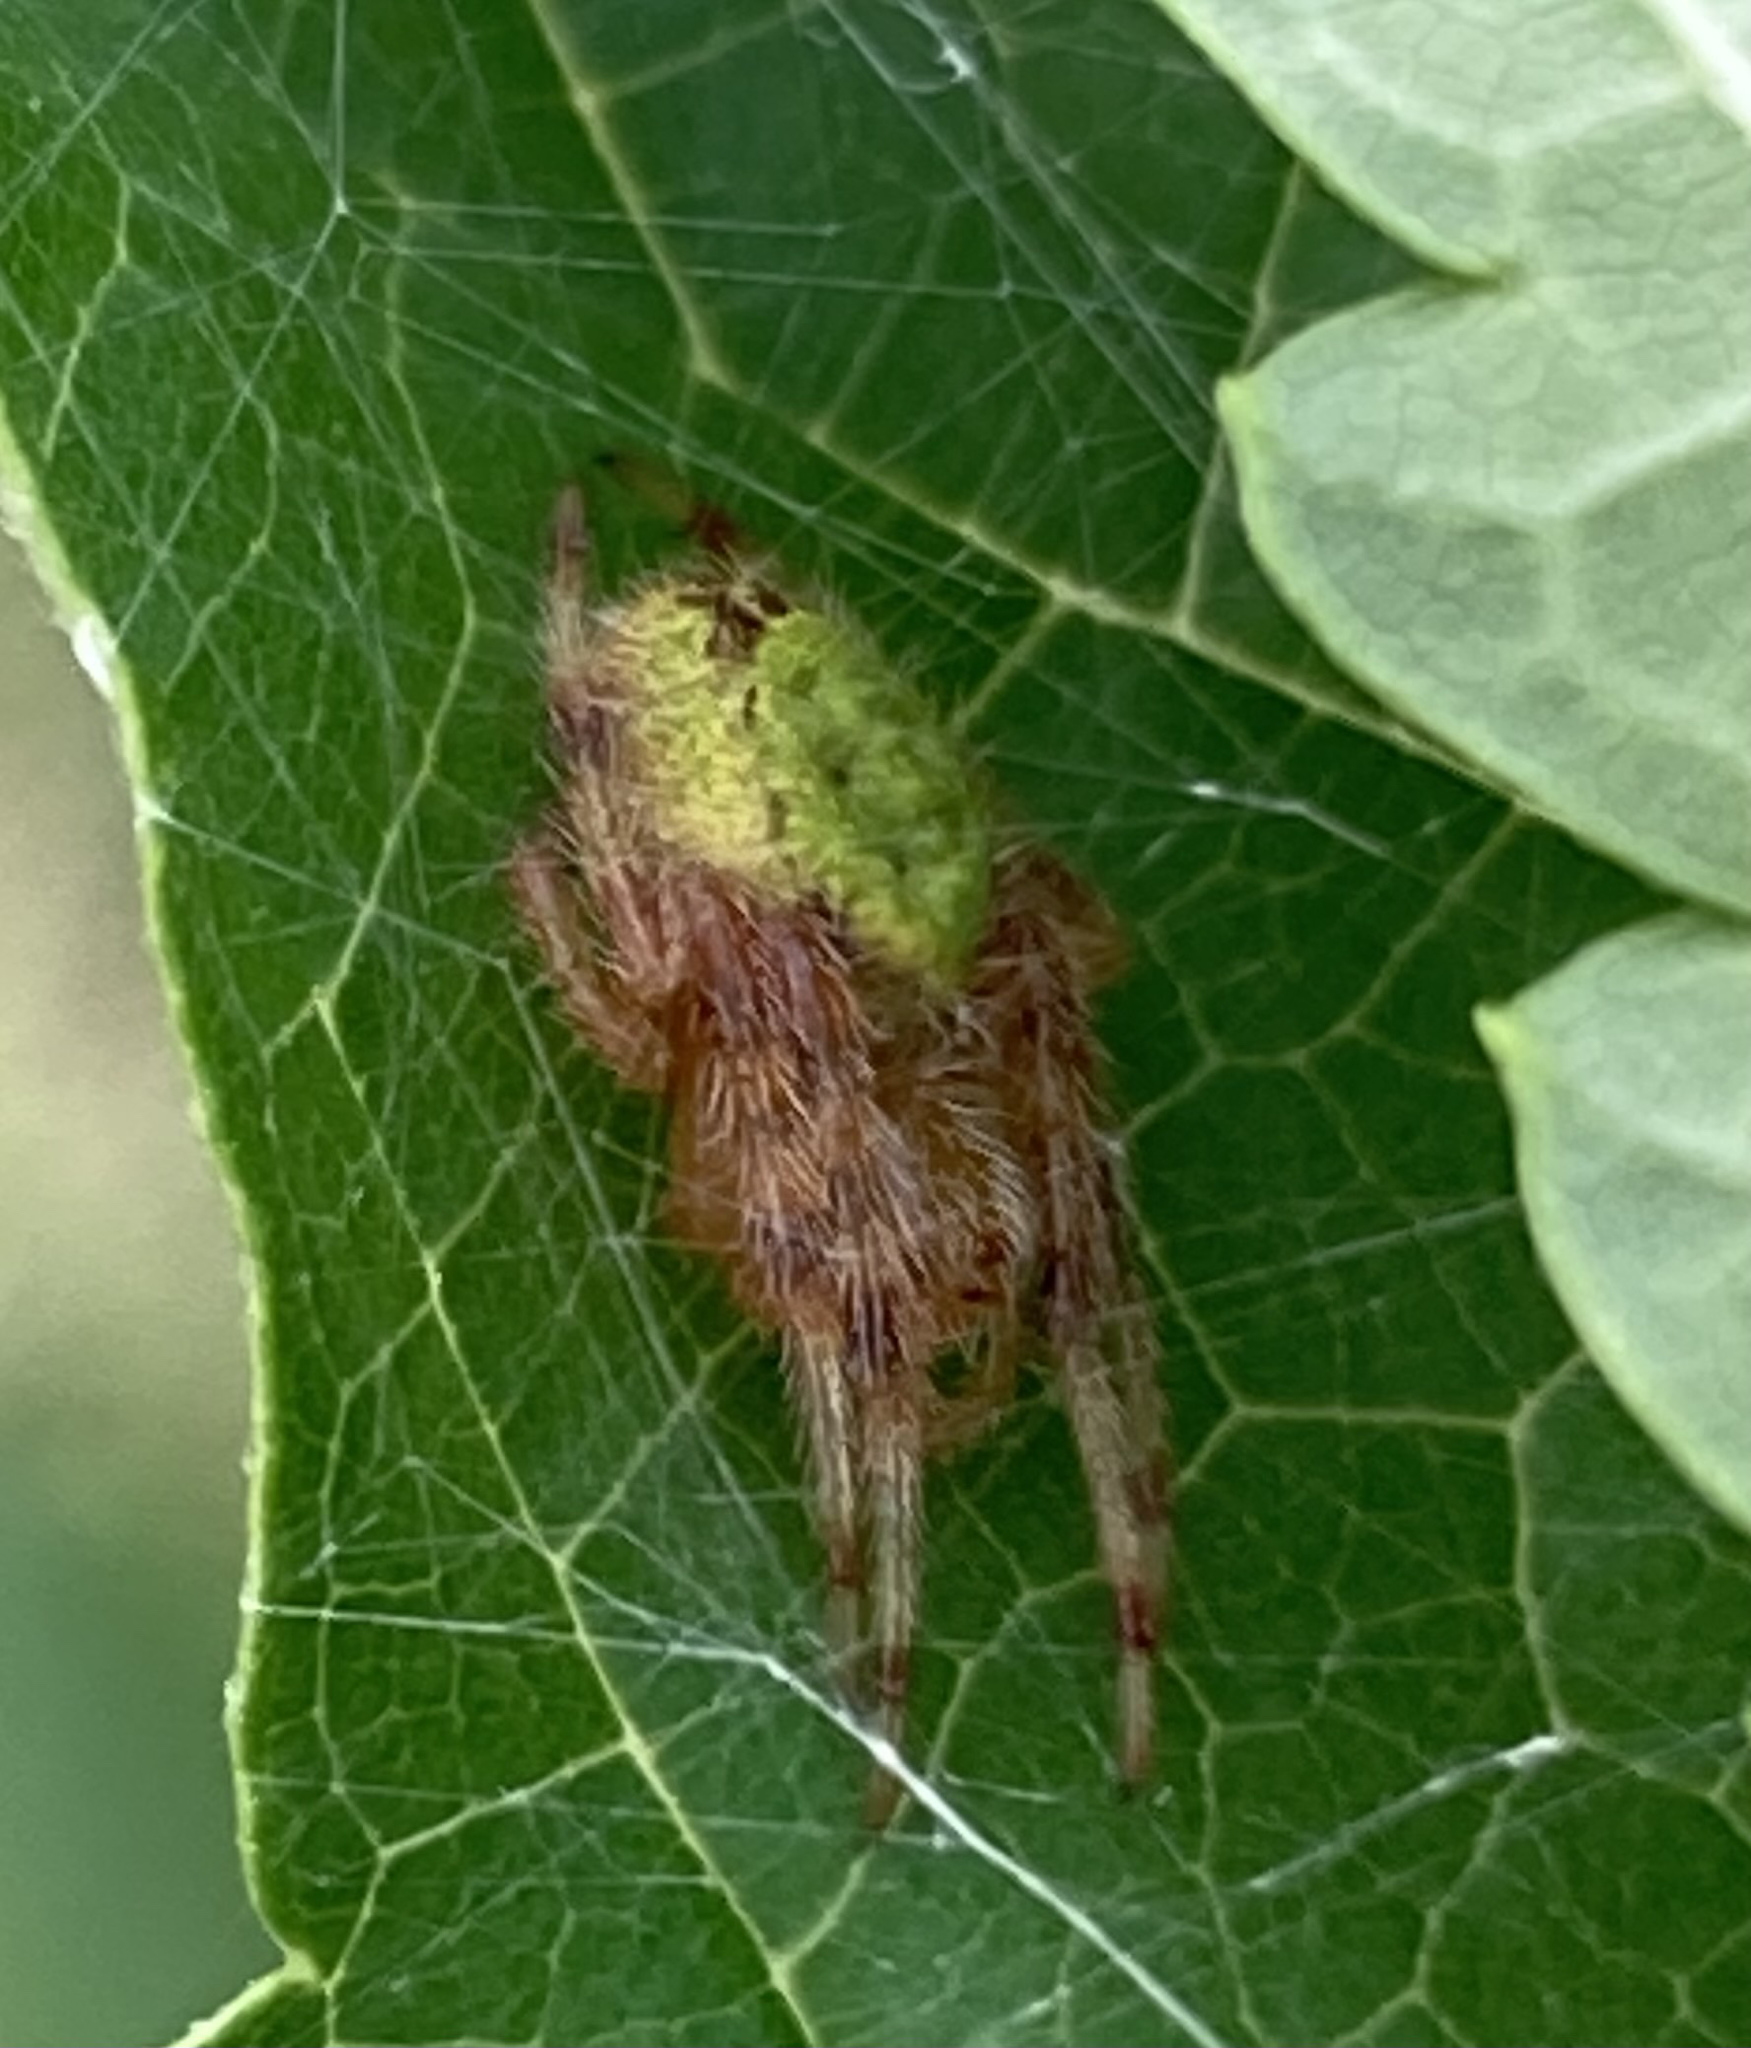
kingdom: Animalia
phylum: Arthropoda
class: Arachnida
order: Araneae
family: Araneidae
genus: Eriophora
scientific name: Eriophora ravilla
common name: Orb weavers
